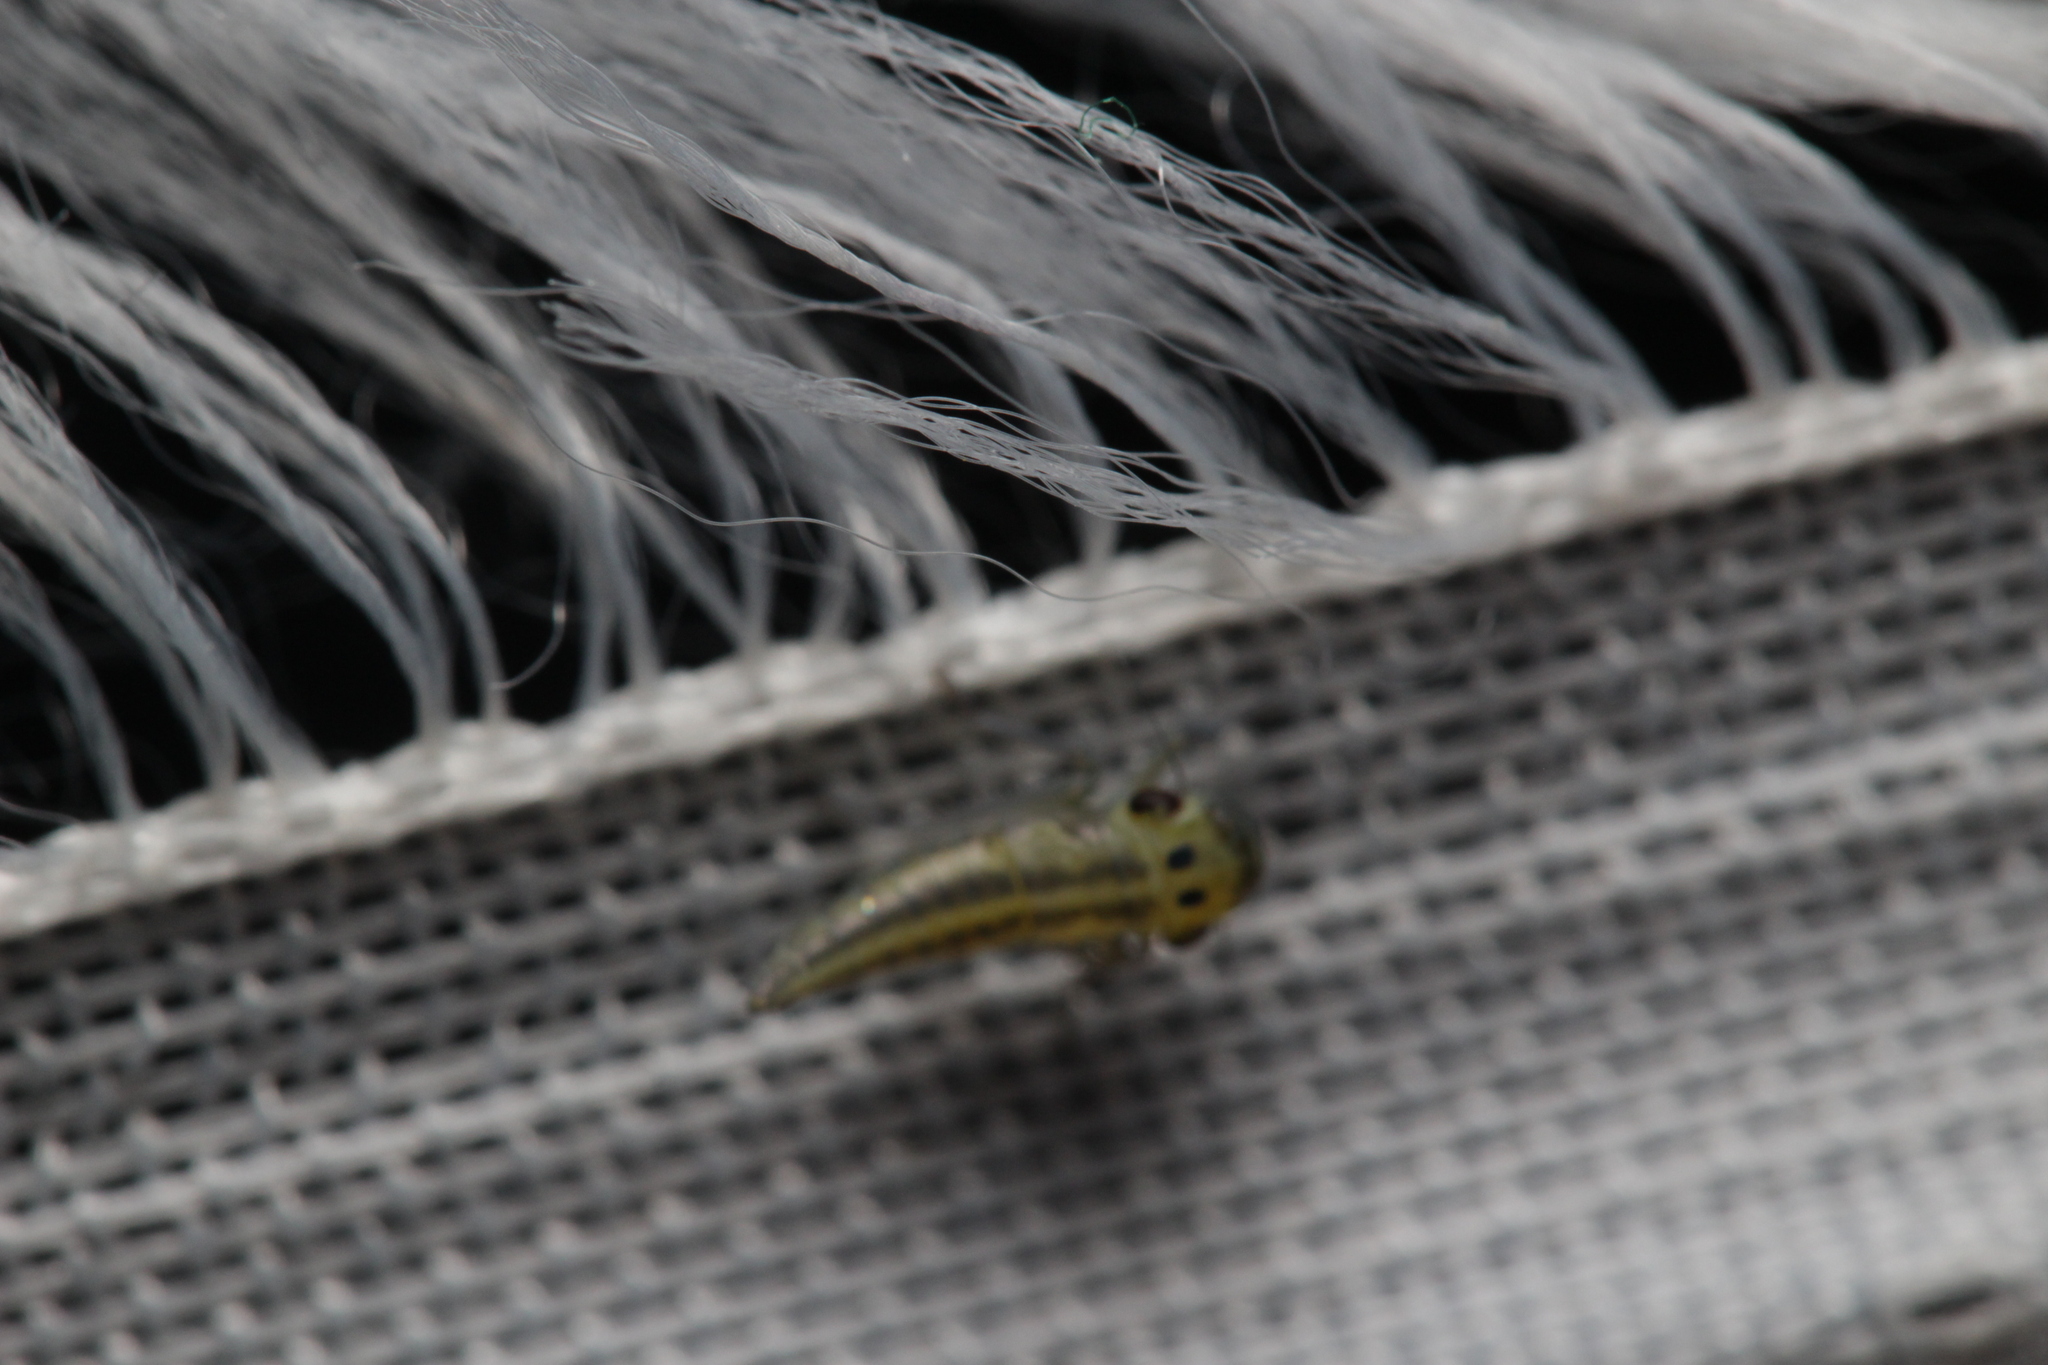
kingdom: Animalia
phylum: Arthropoda
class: Insecta
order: Hemiptera
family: Cicadellidae
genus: Cicadella
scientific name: Cicadella viridis
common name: Leafhopper
